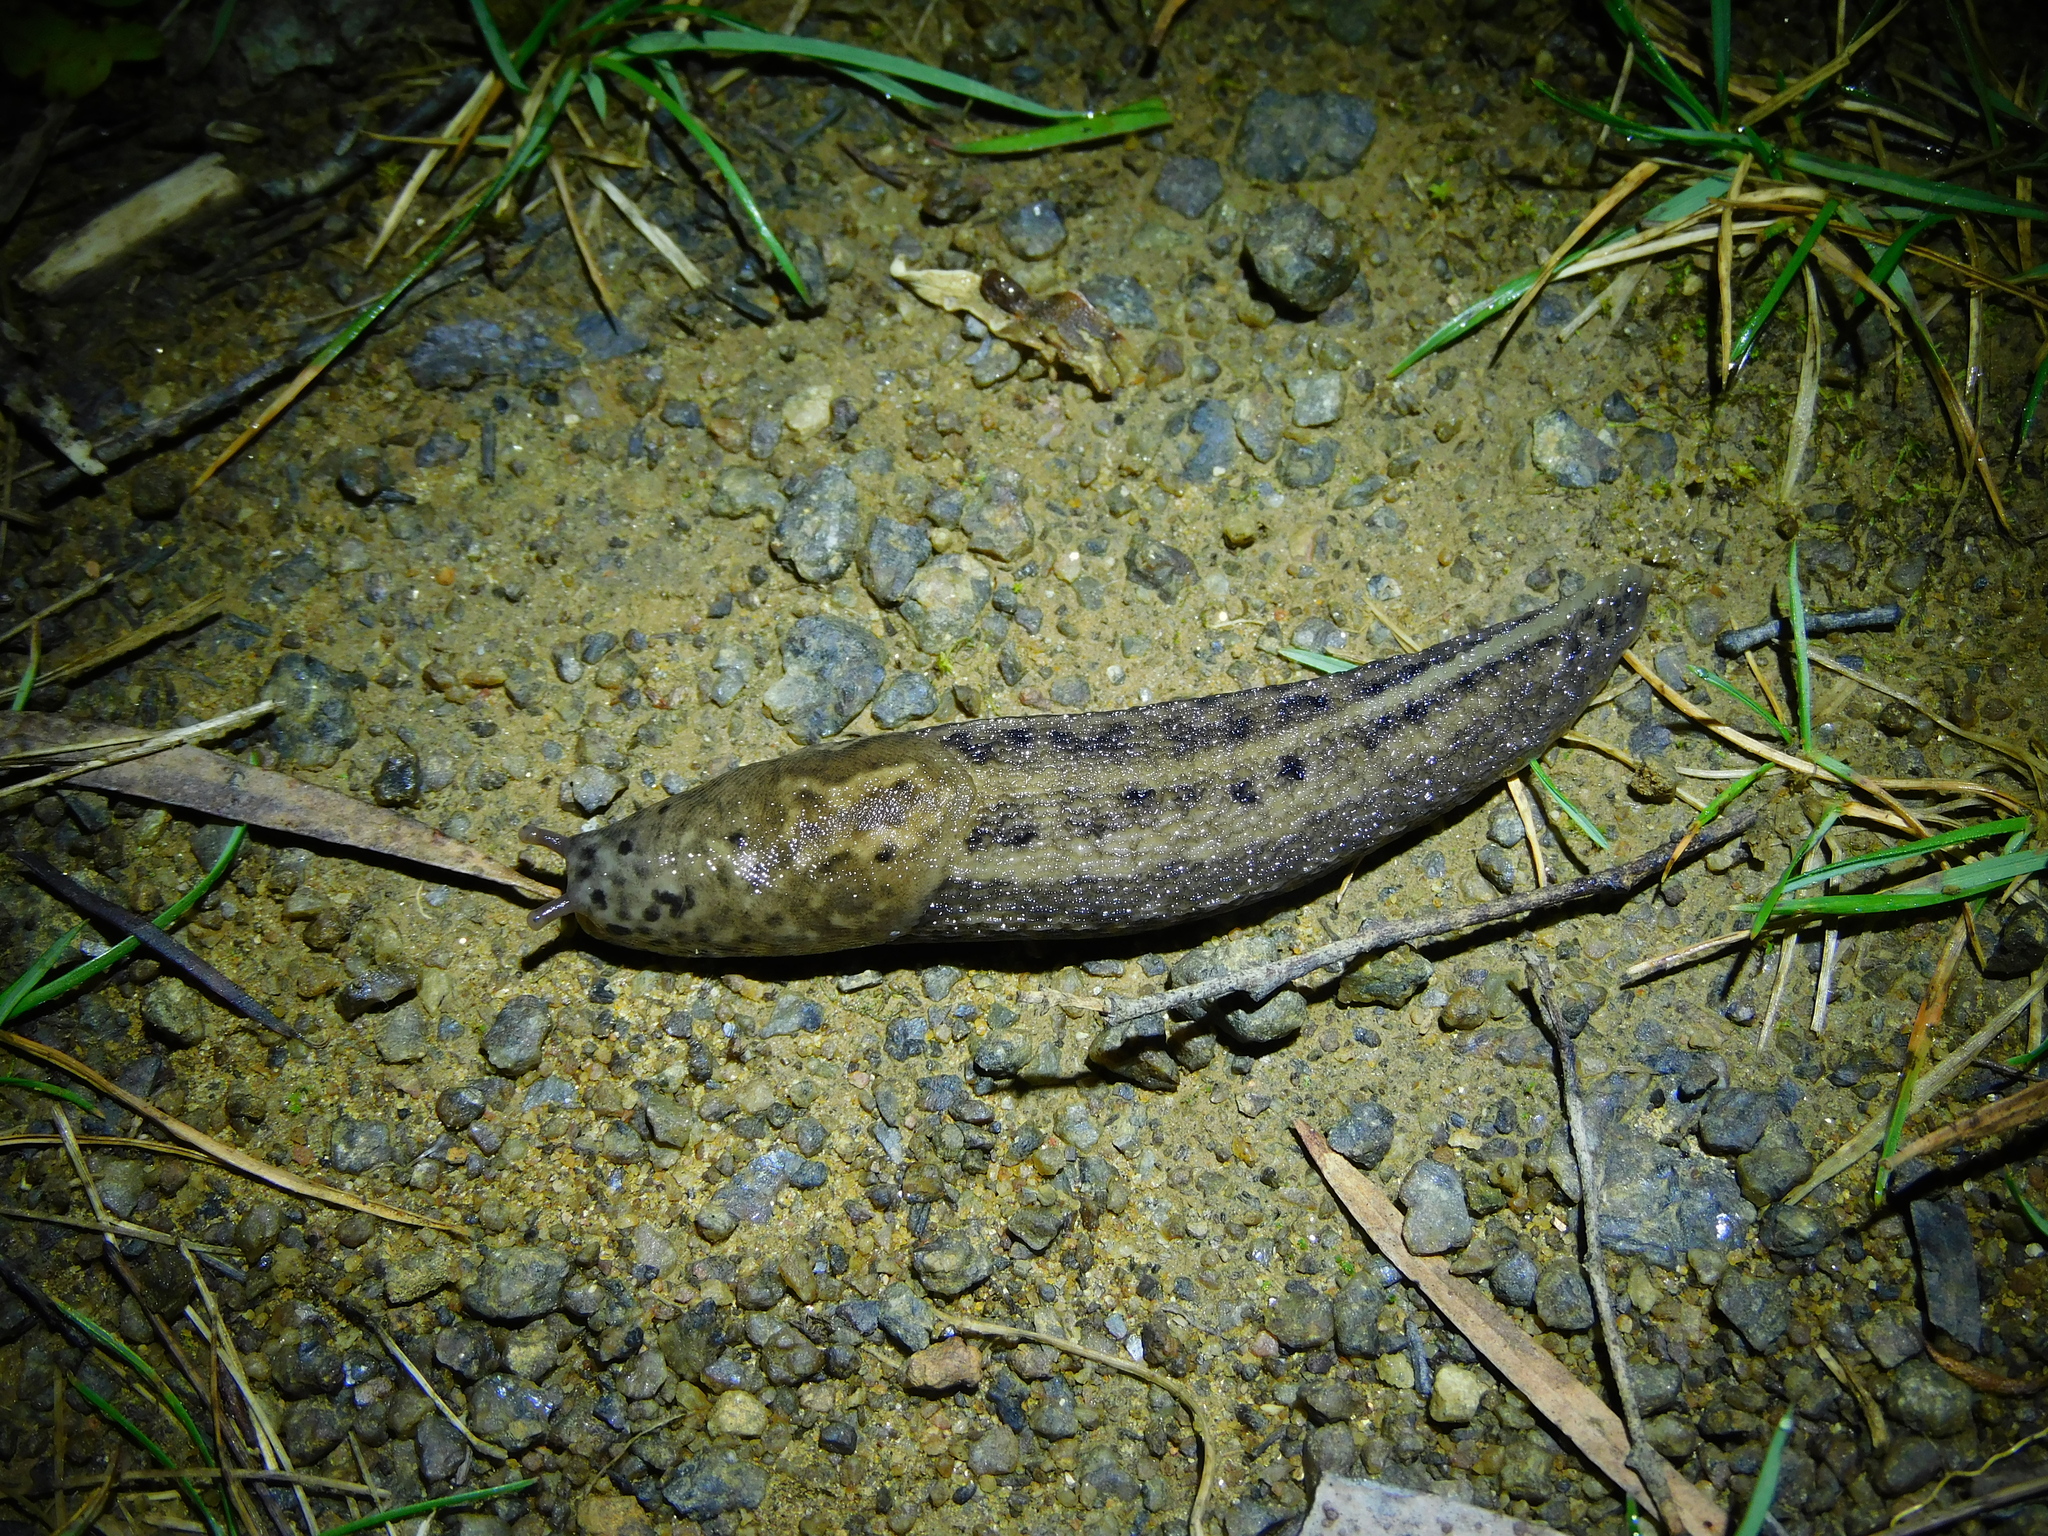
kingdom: Animalia
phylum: Mollusca
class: Gastropoda
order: Stylommatophora
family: Limacidae
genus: Limax
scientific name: Limax maximus
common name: Great grey slug
